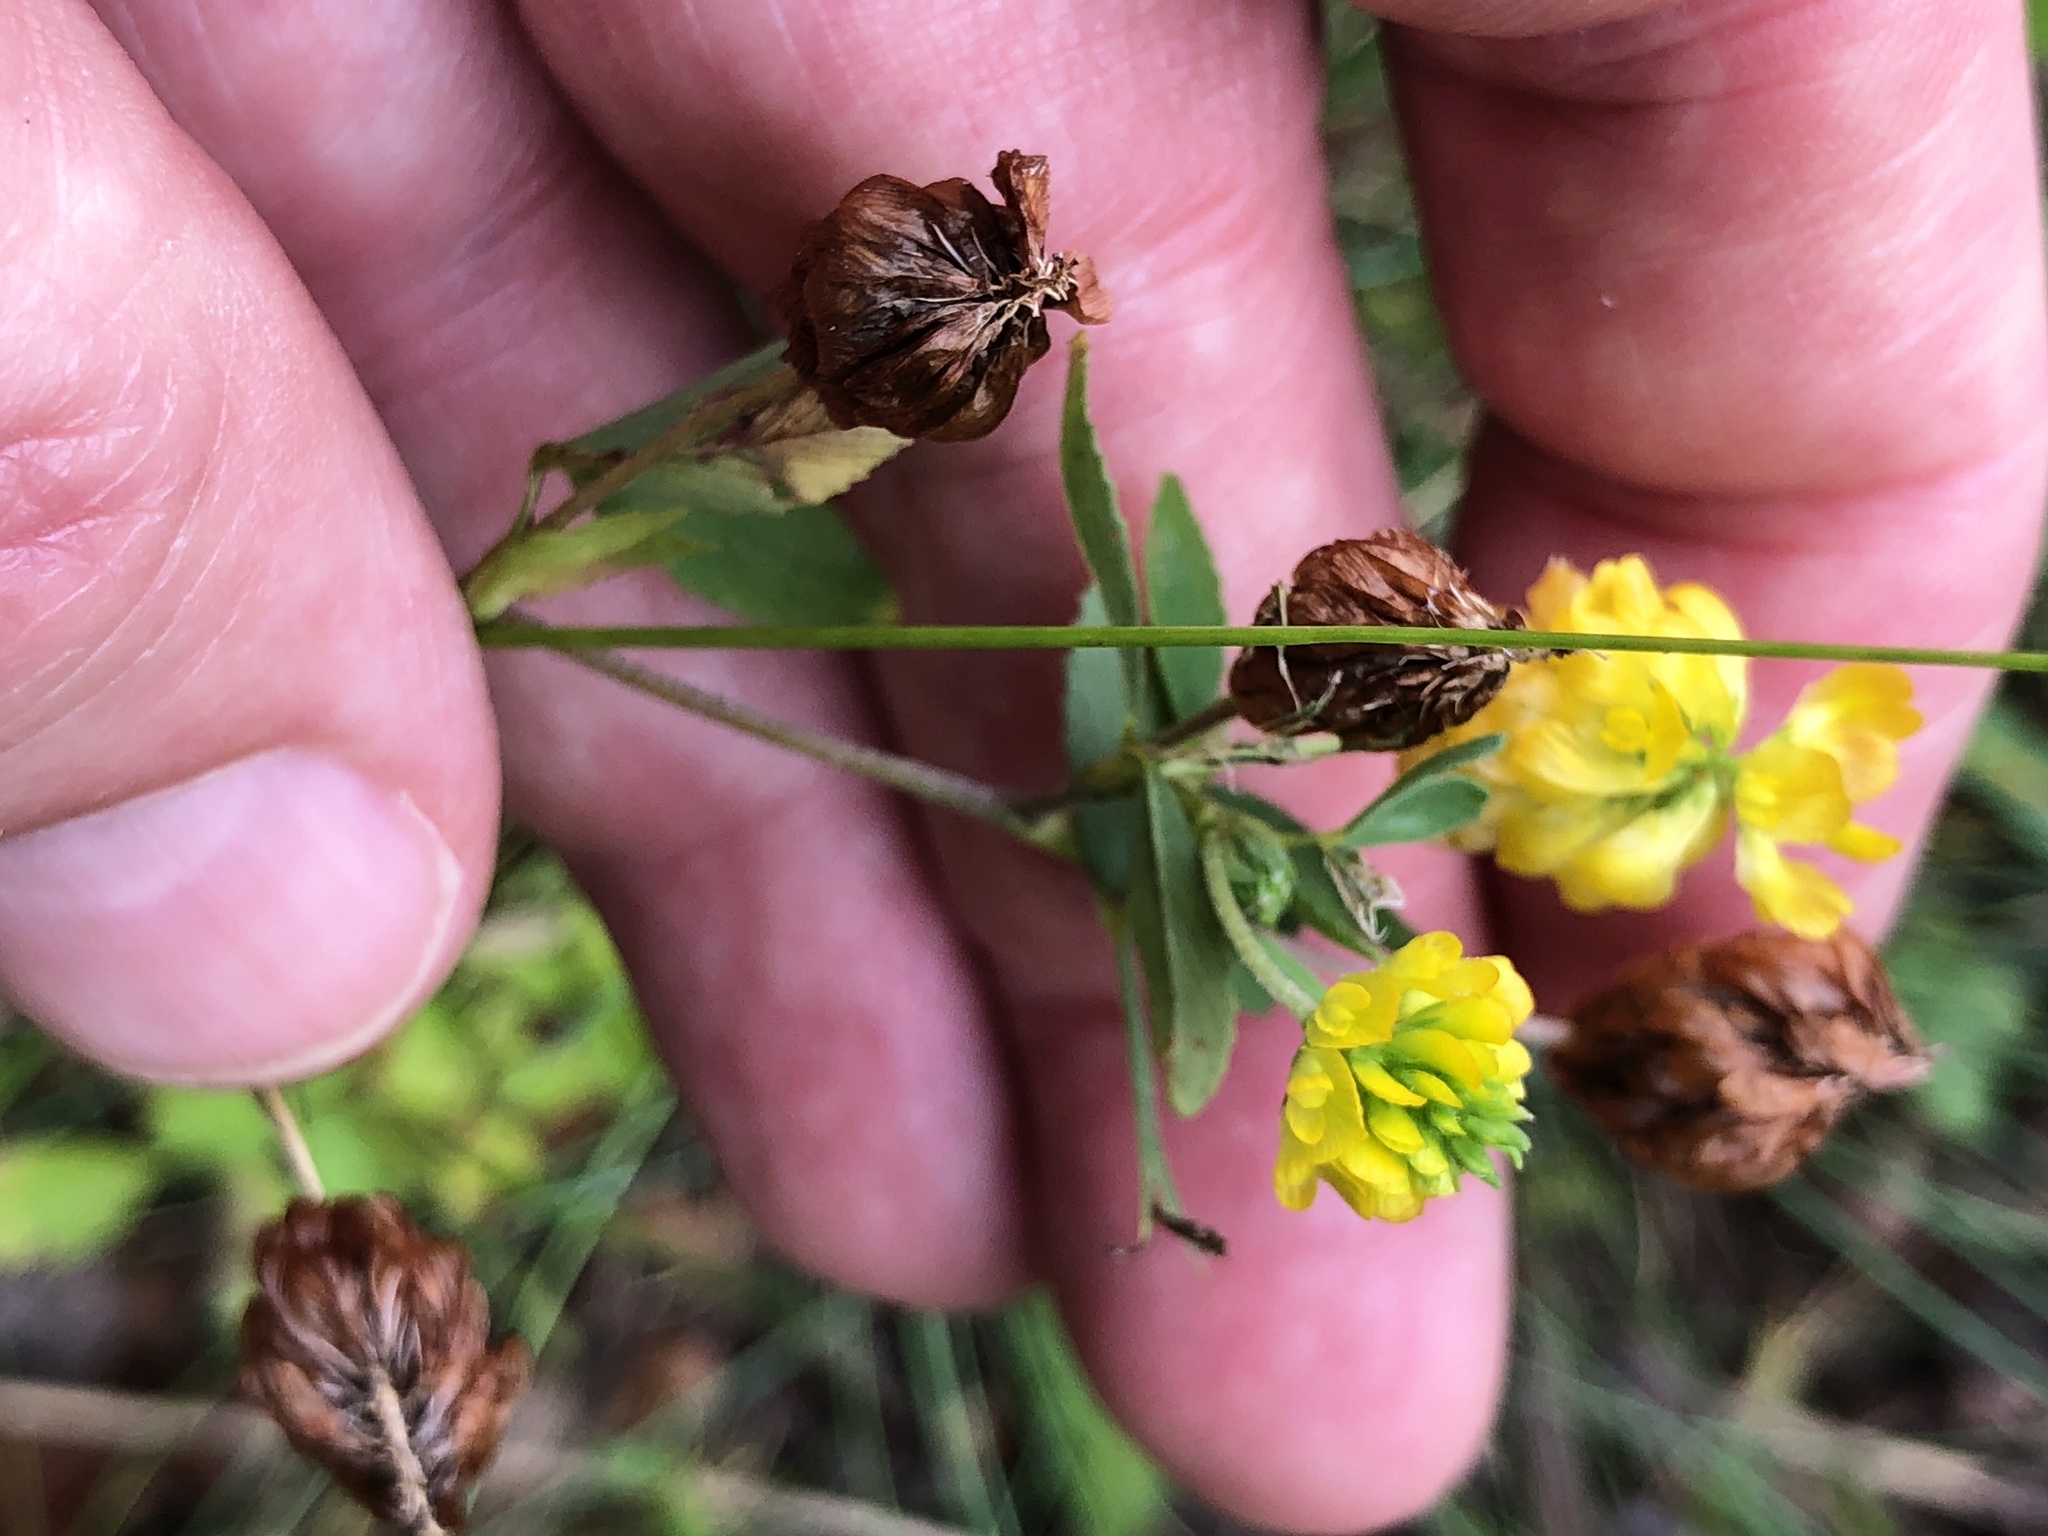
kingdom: Plantae
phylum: Tracheophyta
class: Magnoliopsida
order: Fabales
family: Fabaceae
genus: Trifolium
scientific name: Trifolium aureum
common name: Golden clover
